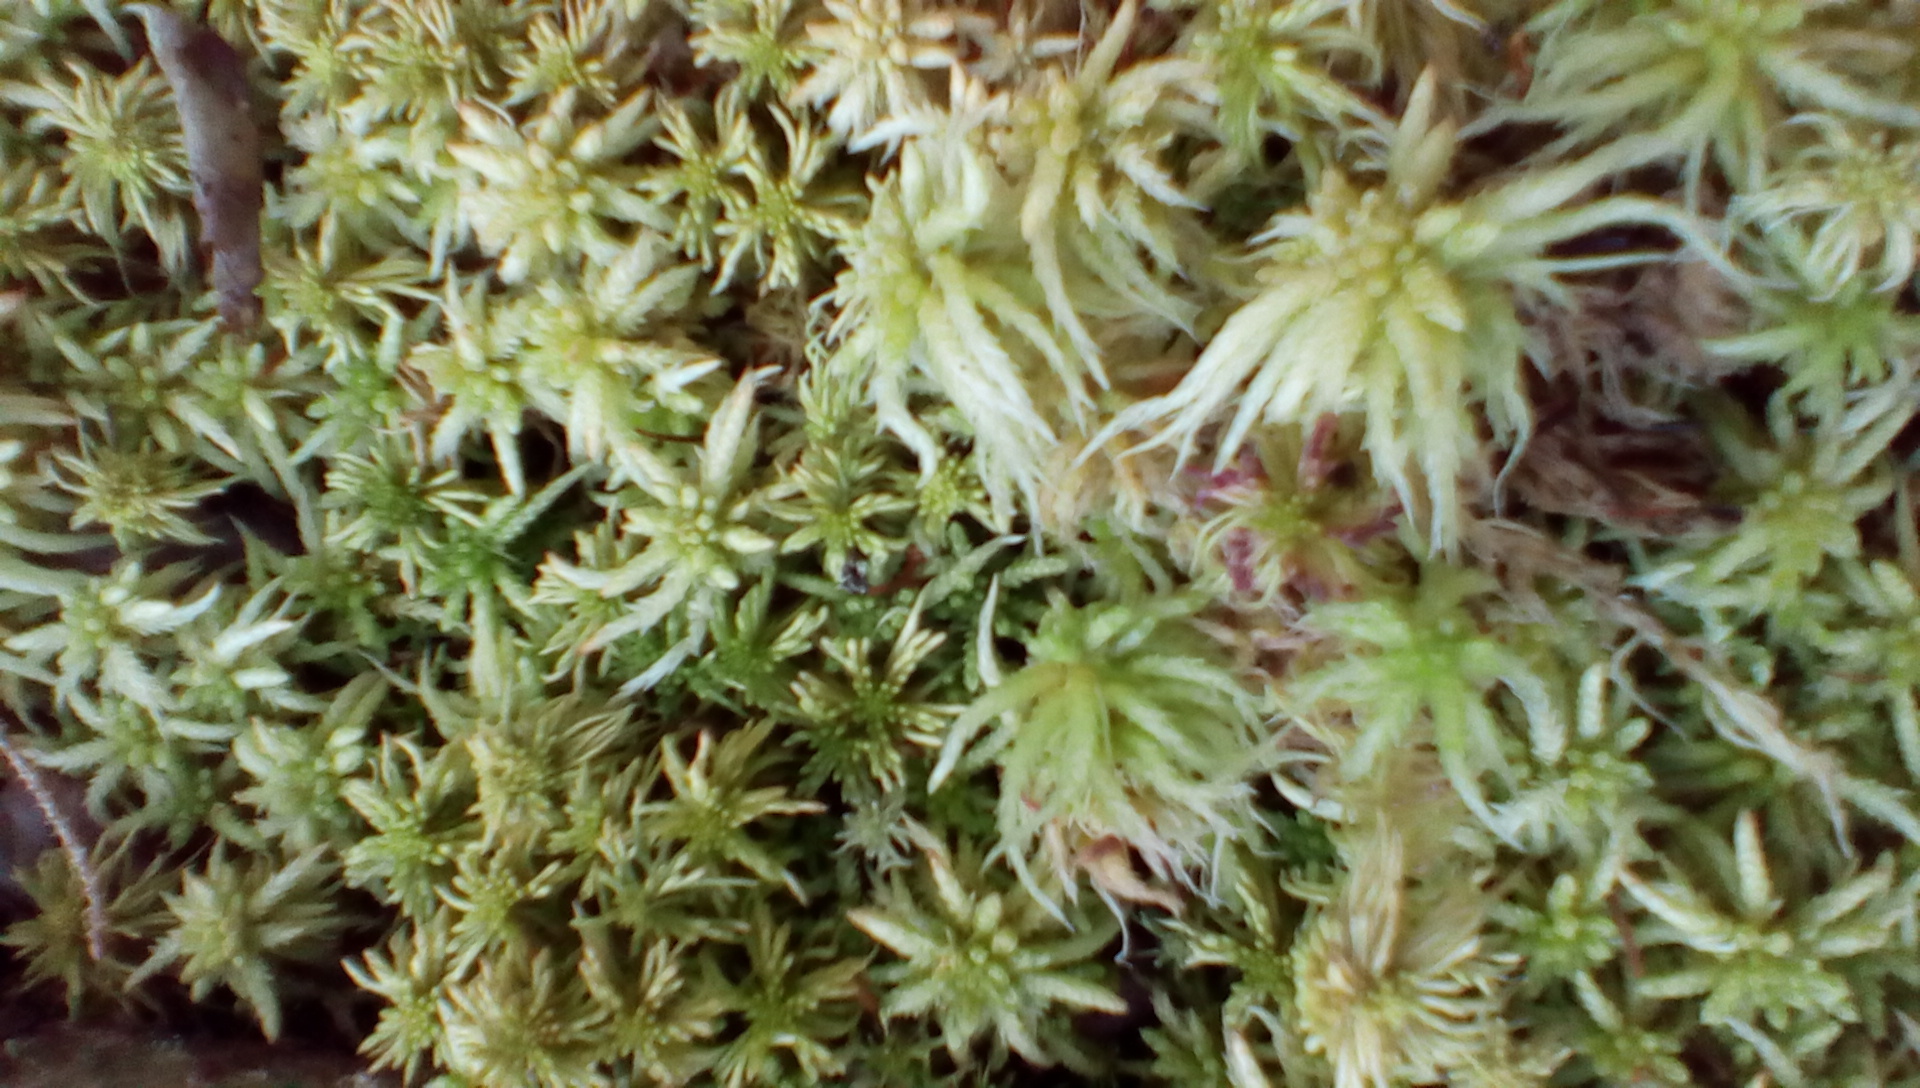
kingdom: Plantae
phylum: Bryophyta
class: Sphagnopsida
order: Sphagnales
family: Sphagnaceae
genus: Sphagnum
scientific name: Sphagnum
